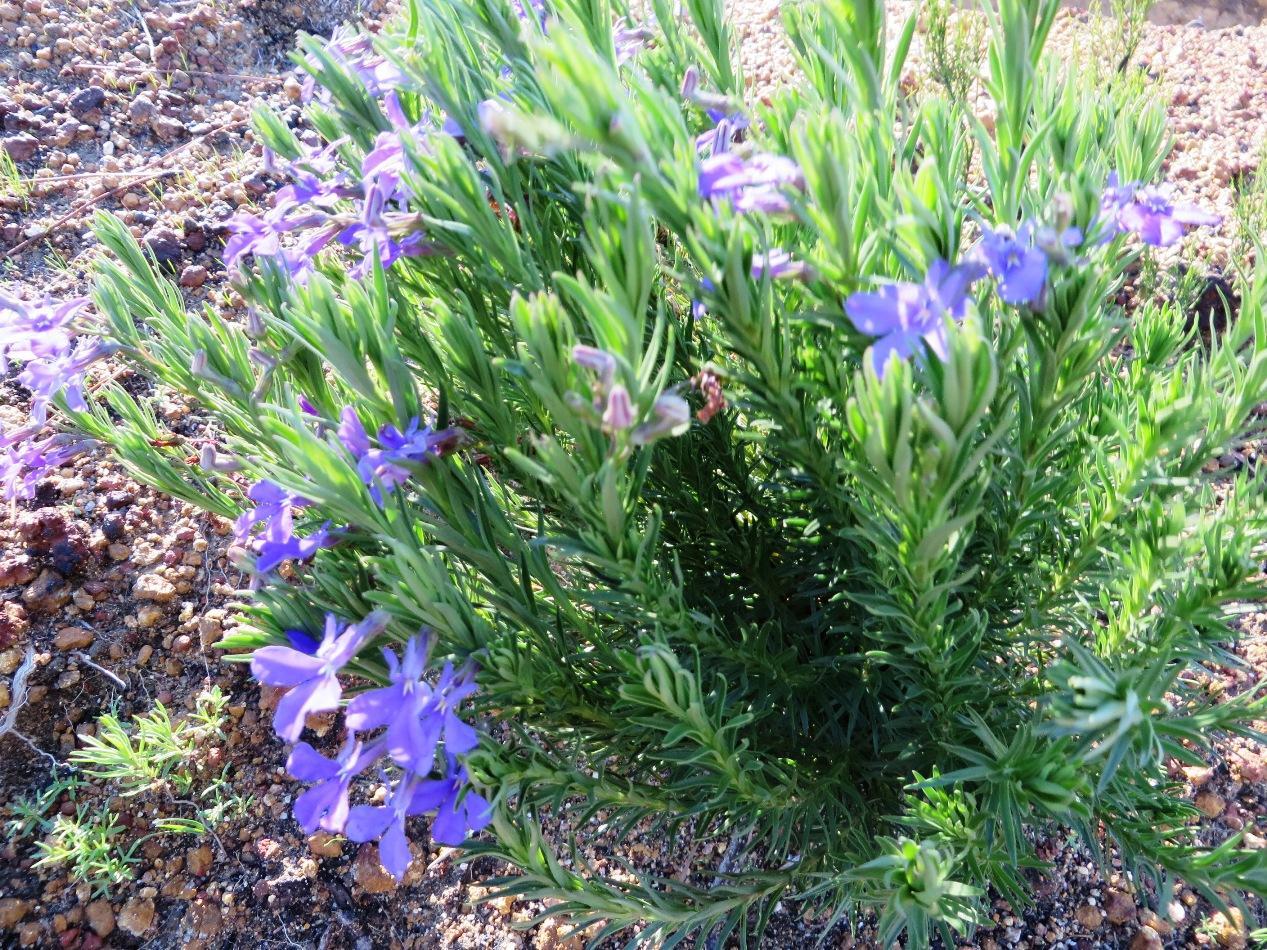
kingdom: Plantae
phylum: Tracheophyta
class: Magnoliopsida
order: Asterales
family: Campanulaceae
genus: Lobelia
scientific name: Lobelia pinifolia
